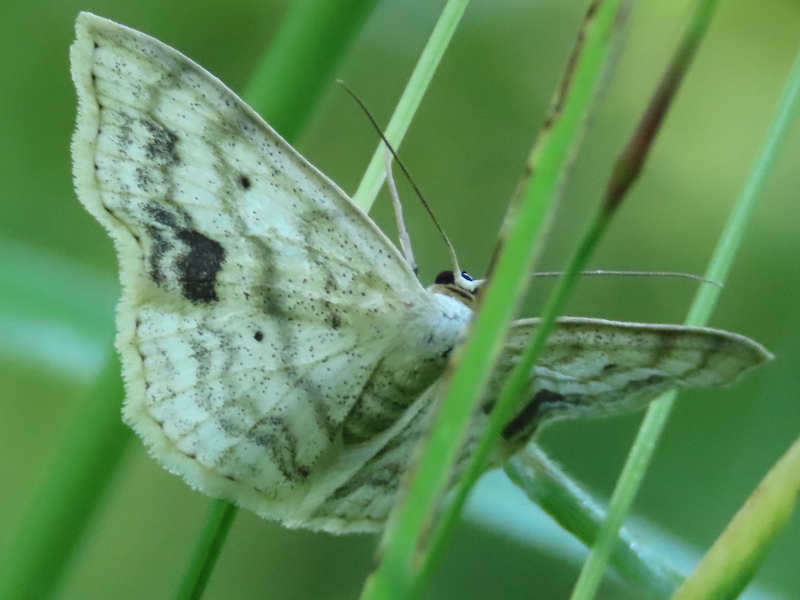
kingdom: Animalia
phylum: Arthropoda
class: Insecta
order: Lepidoptera
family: Geometridae
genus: Scopula
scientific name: Scopula limboundata
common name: Large lace border
